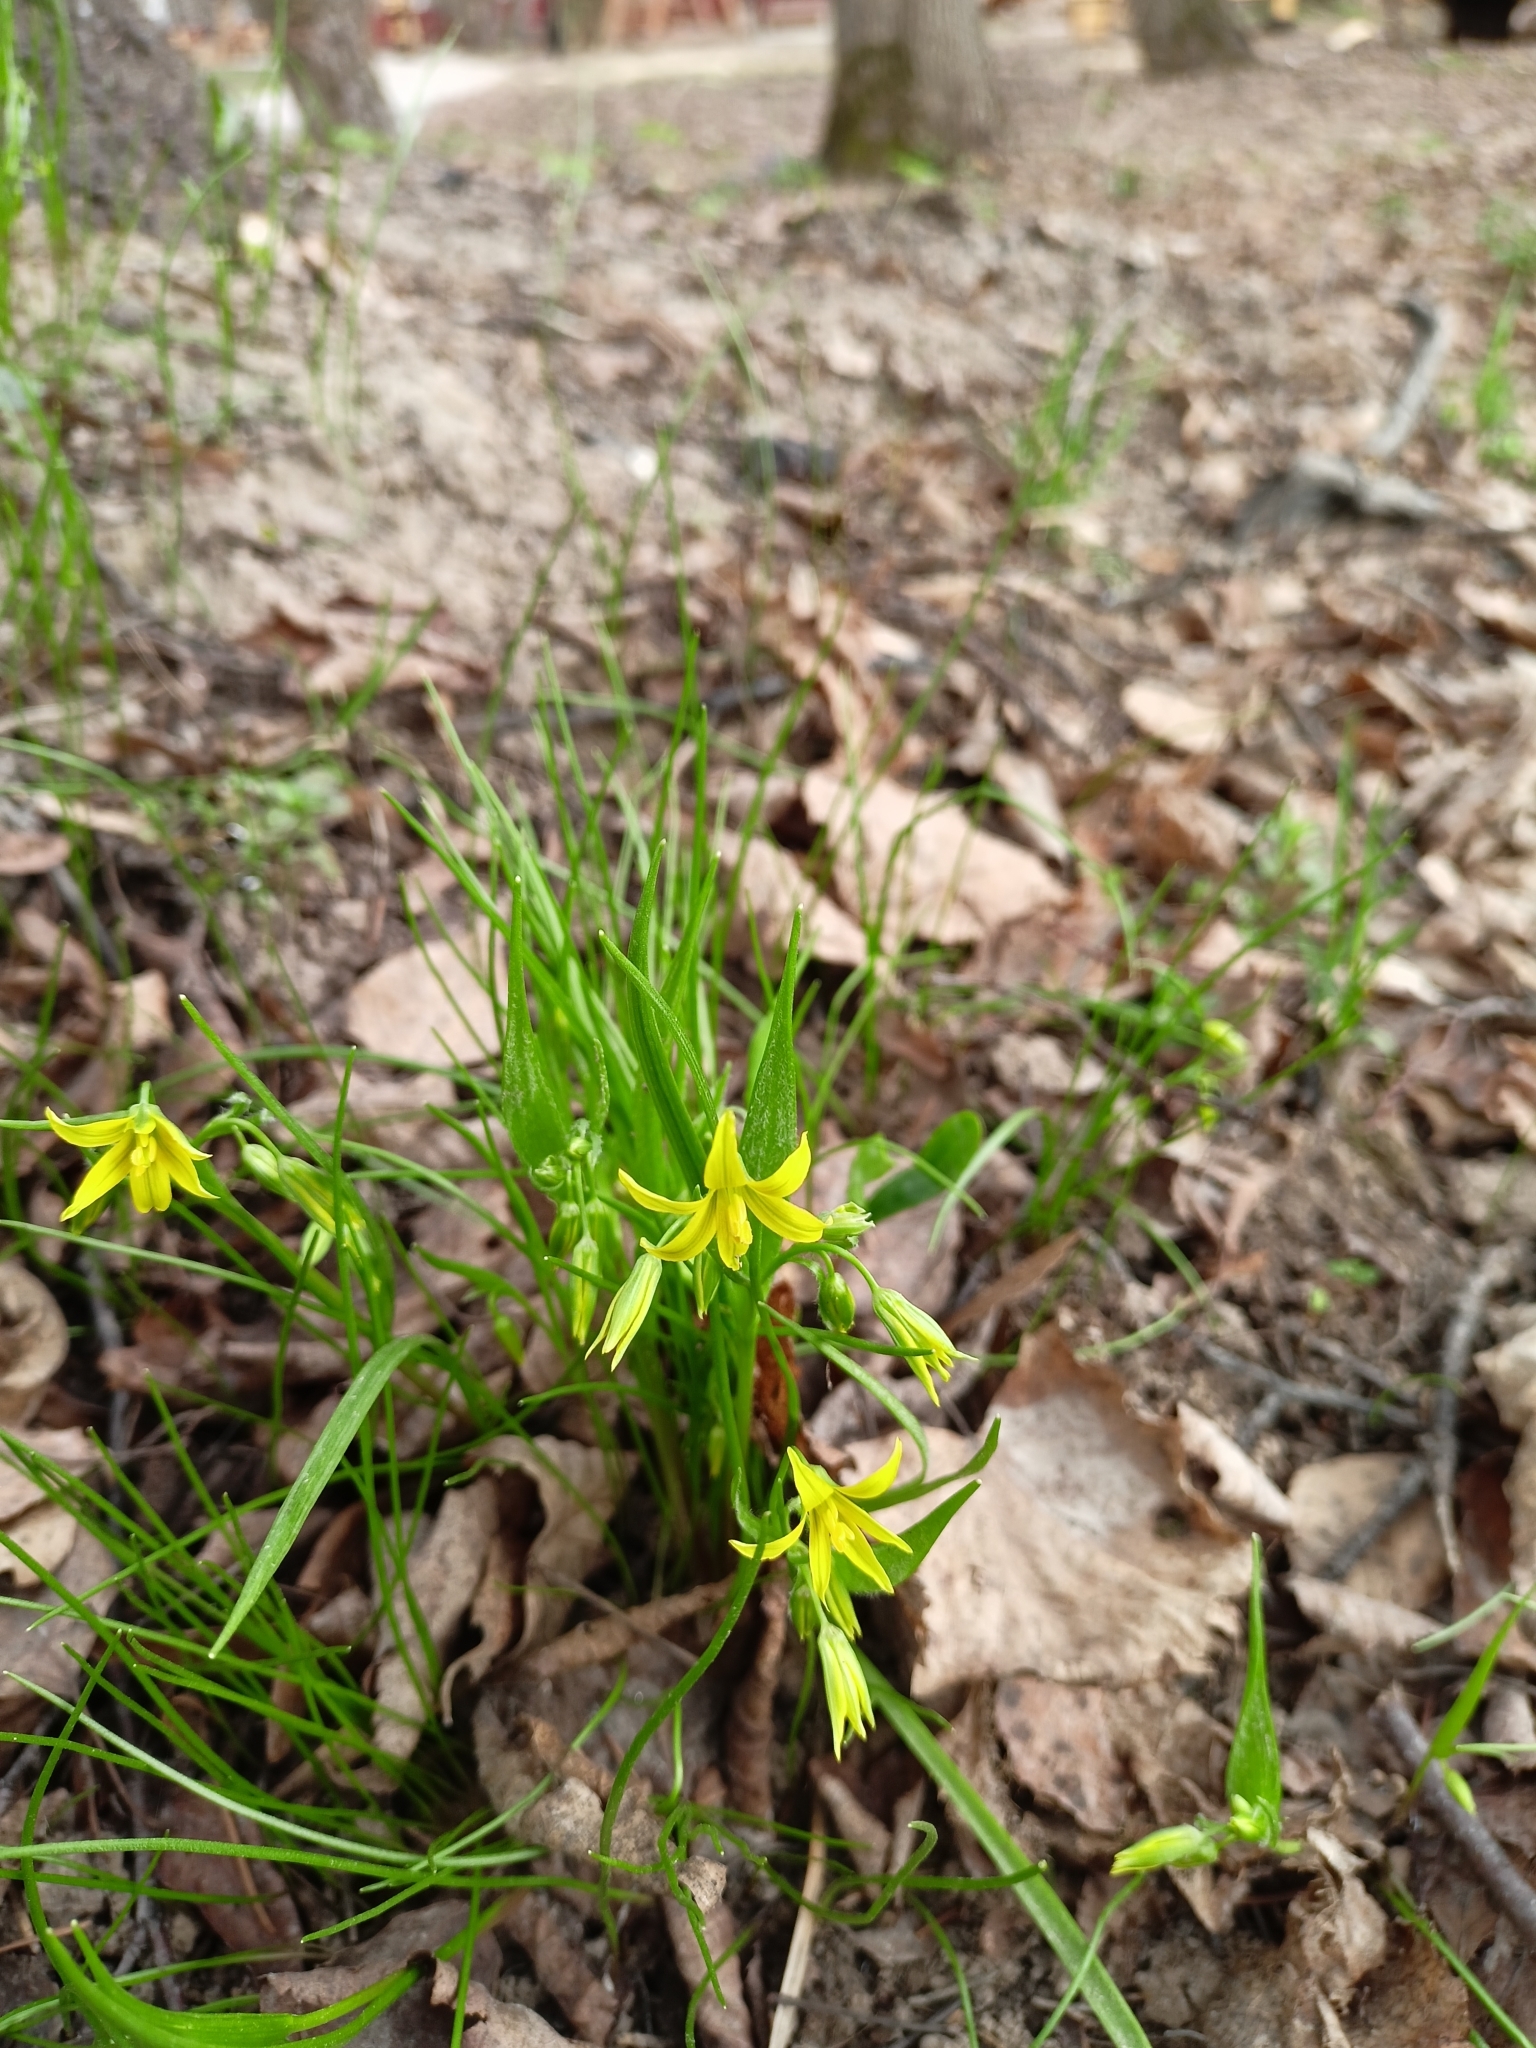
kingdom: Plantae
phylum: Tracheophyta
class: Liliopsida
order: Liliales
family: Liliaceae
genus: Gagea
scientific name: Gagea minima
